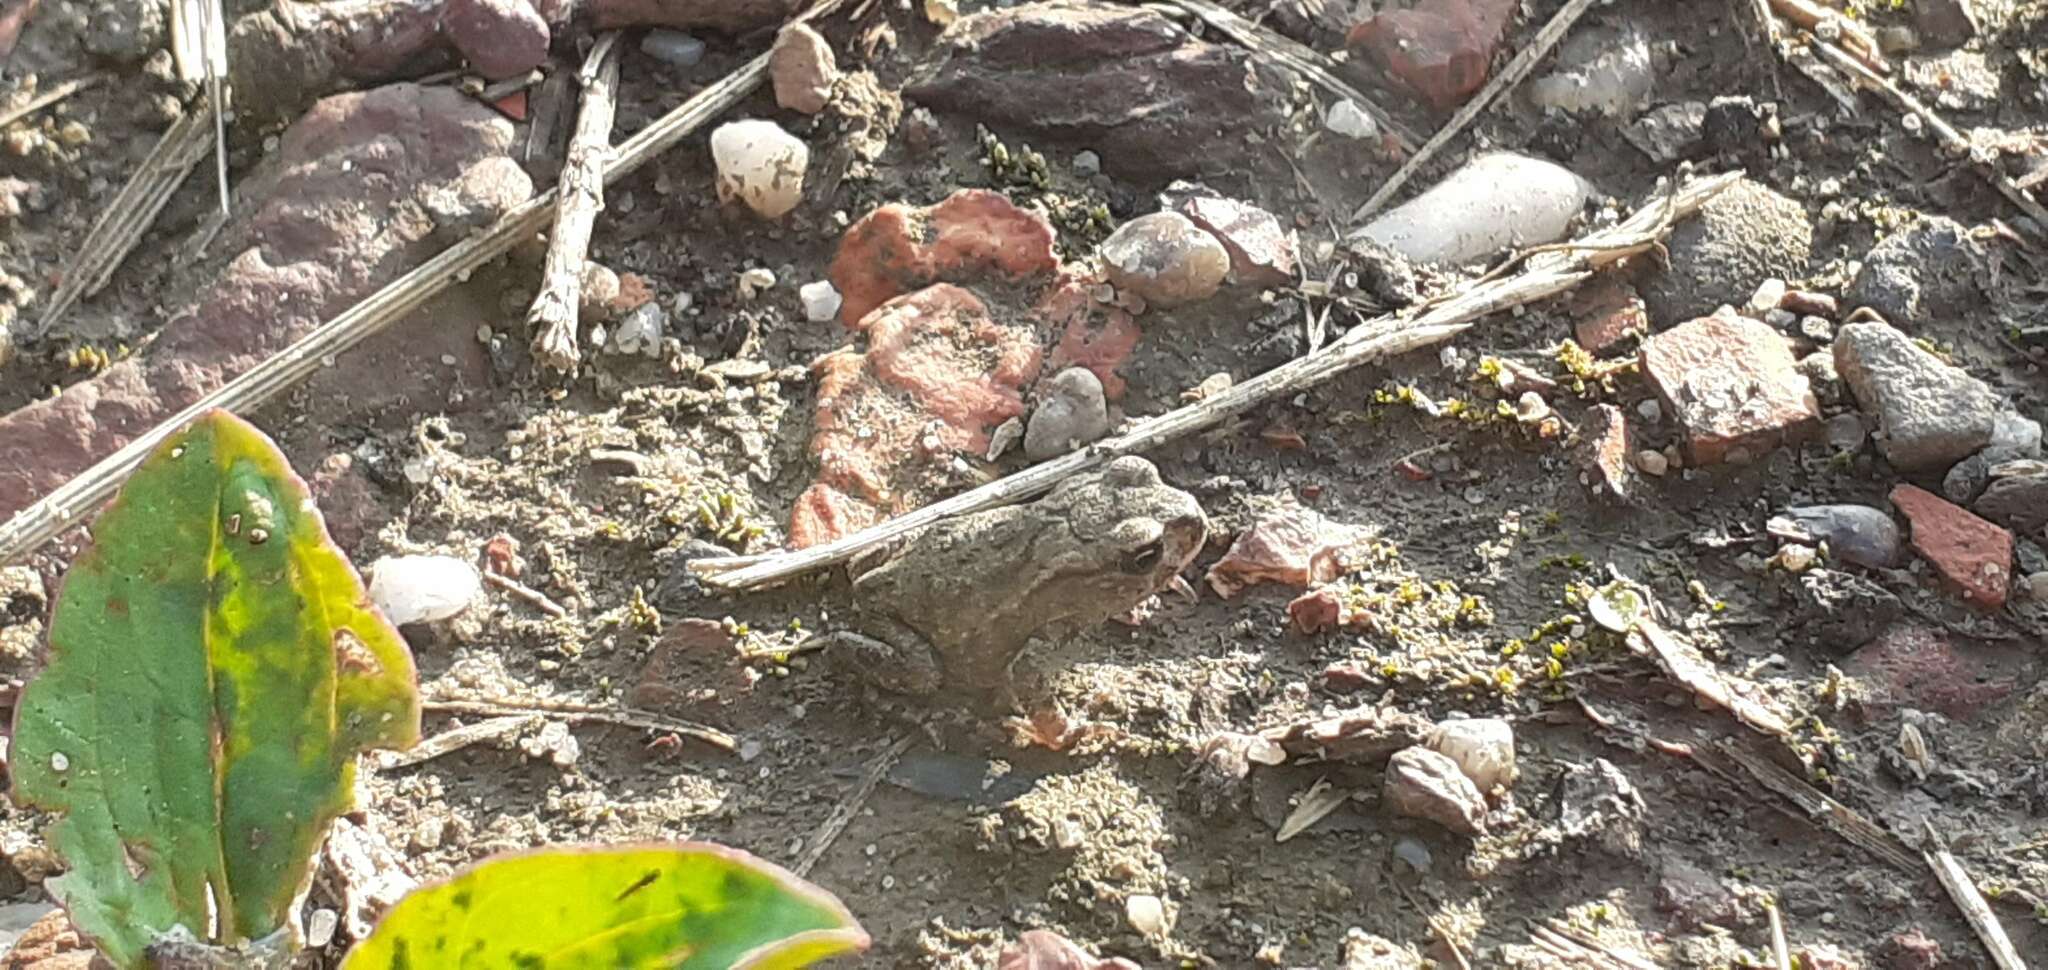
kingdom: Animalia
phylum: Chordata
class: Amphibia
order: Anura
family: Bufonidae
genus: Bufo
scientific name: Bufo bufo
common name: Common toad
